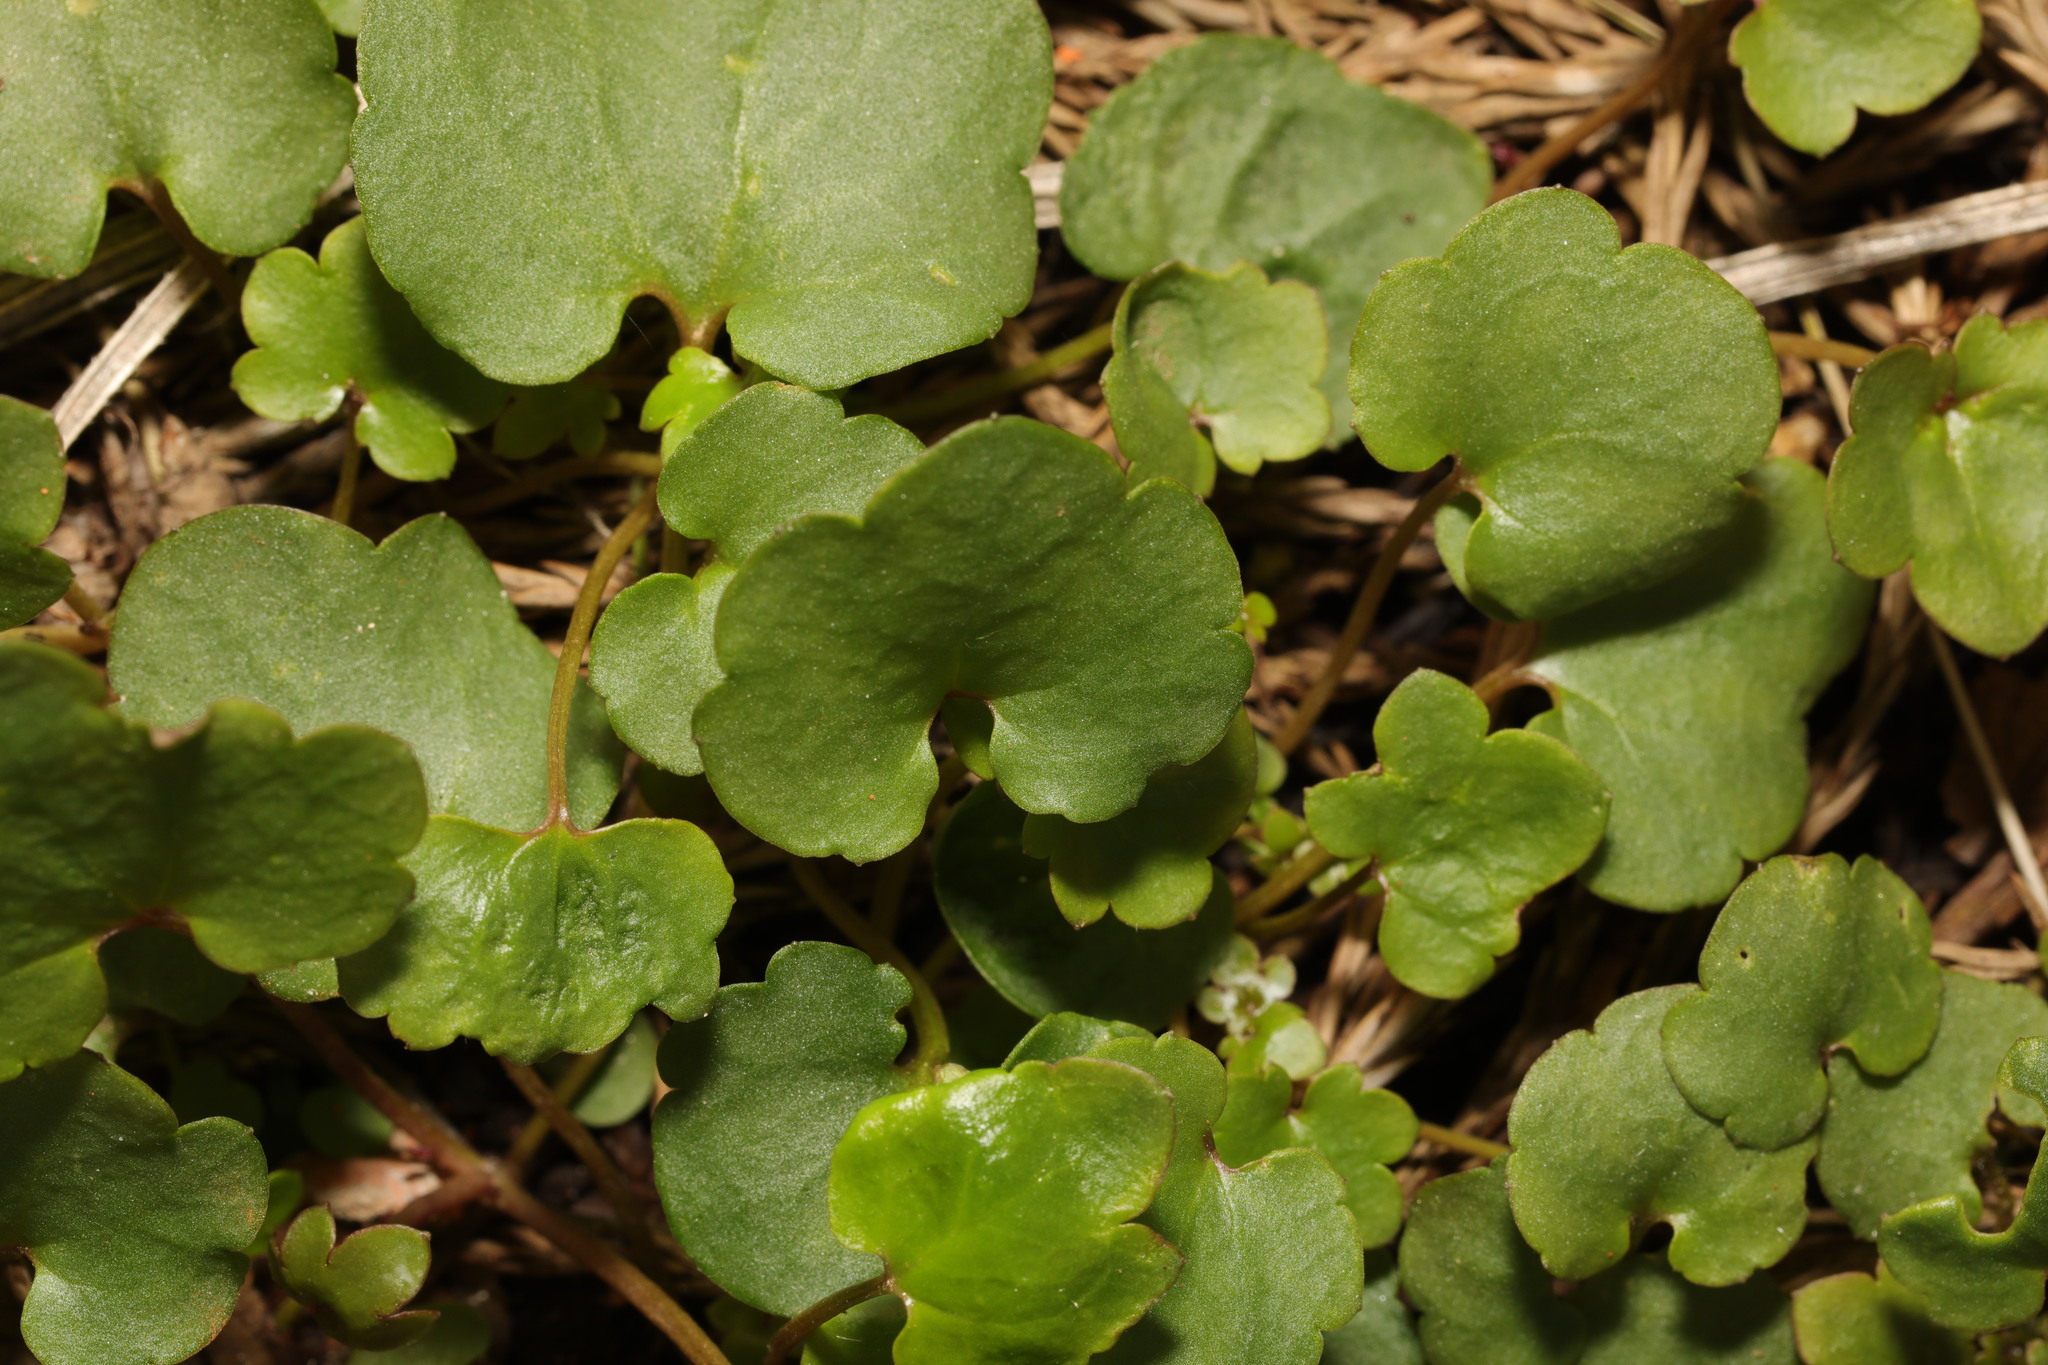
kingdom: Plantae
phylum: Tracheophyta
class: Magnoliopsida
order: Lamiales
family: Plantaginaceae
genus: Cymbalaria
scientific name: Cymbalaria muralis
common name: Ivy-leaved toadflax
